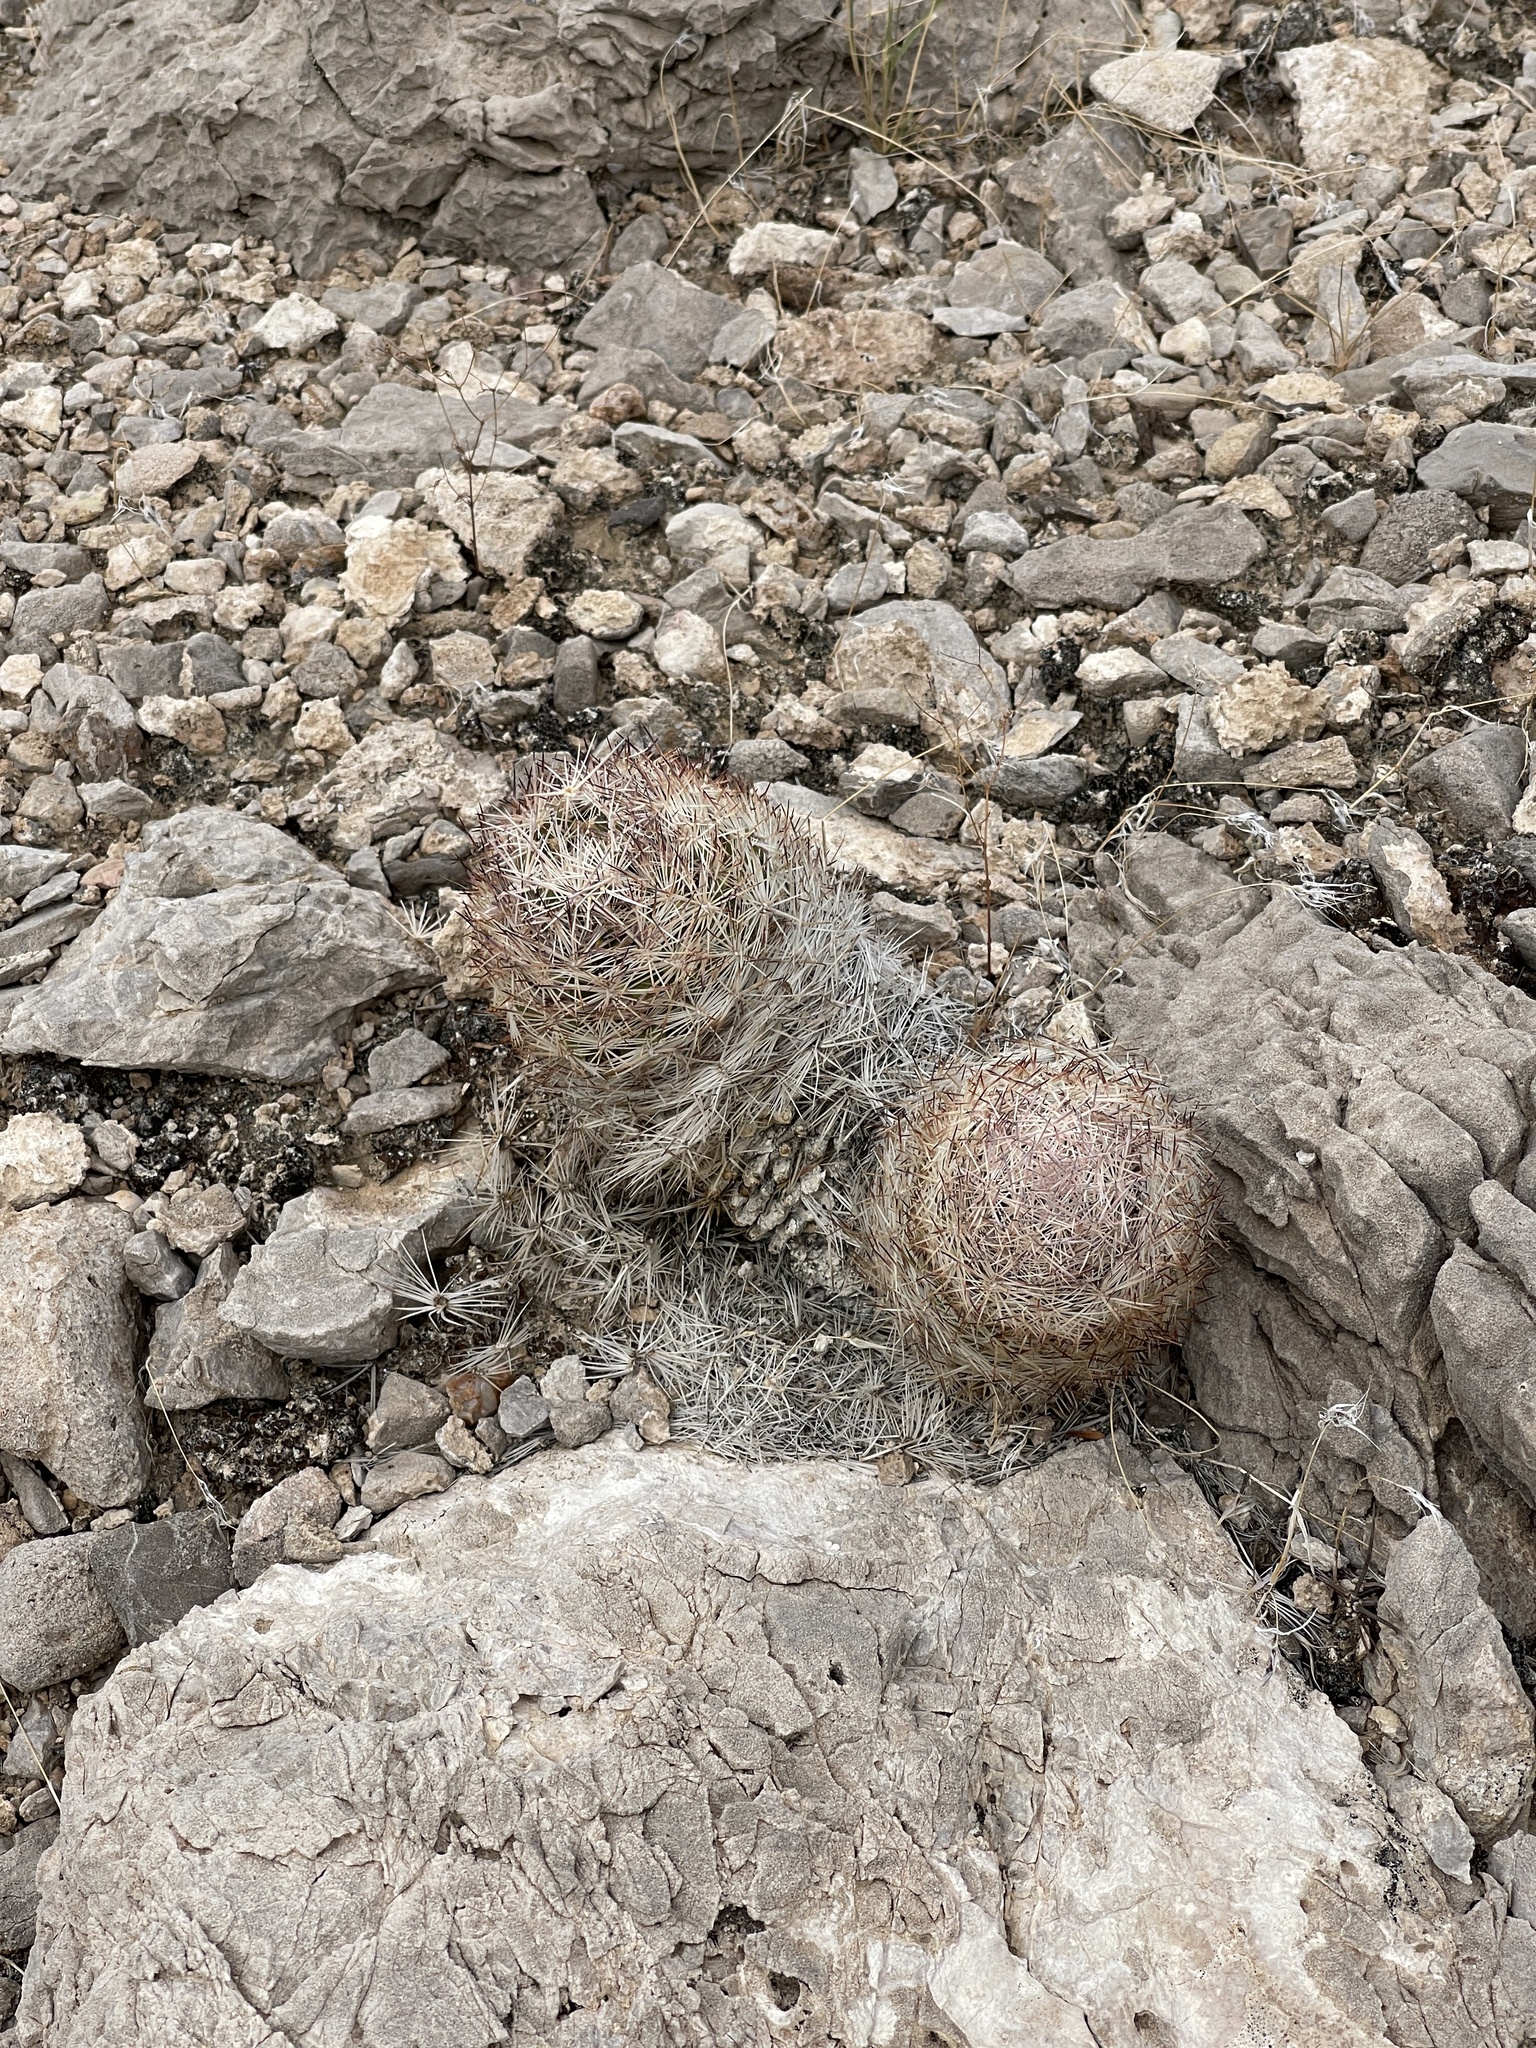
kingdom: Plantae
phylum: Tracheophyta
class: Magnoliopsida
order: Caryophyllales
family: Cactaceae
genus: Pelecyphora
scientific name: Pelecyphora dasyacantha
